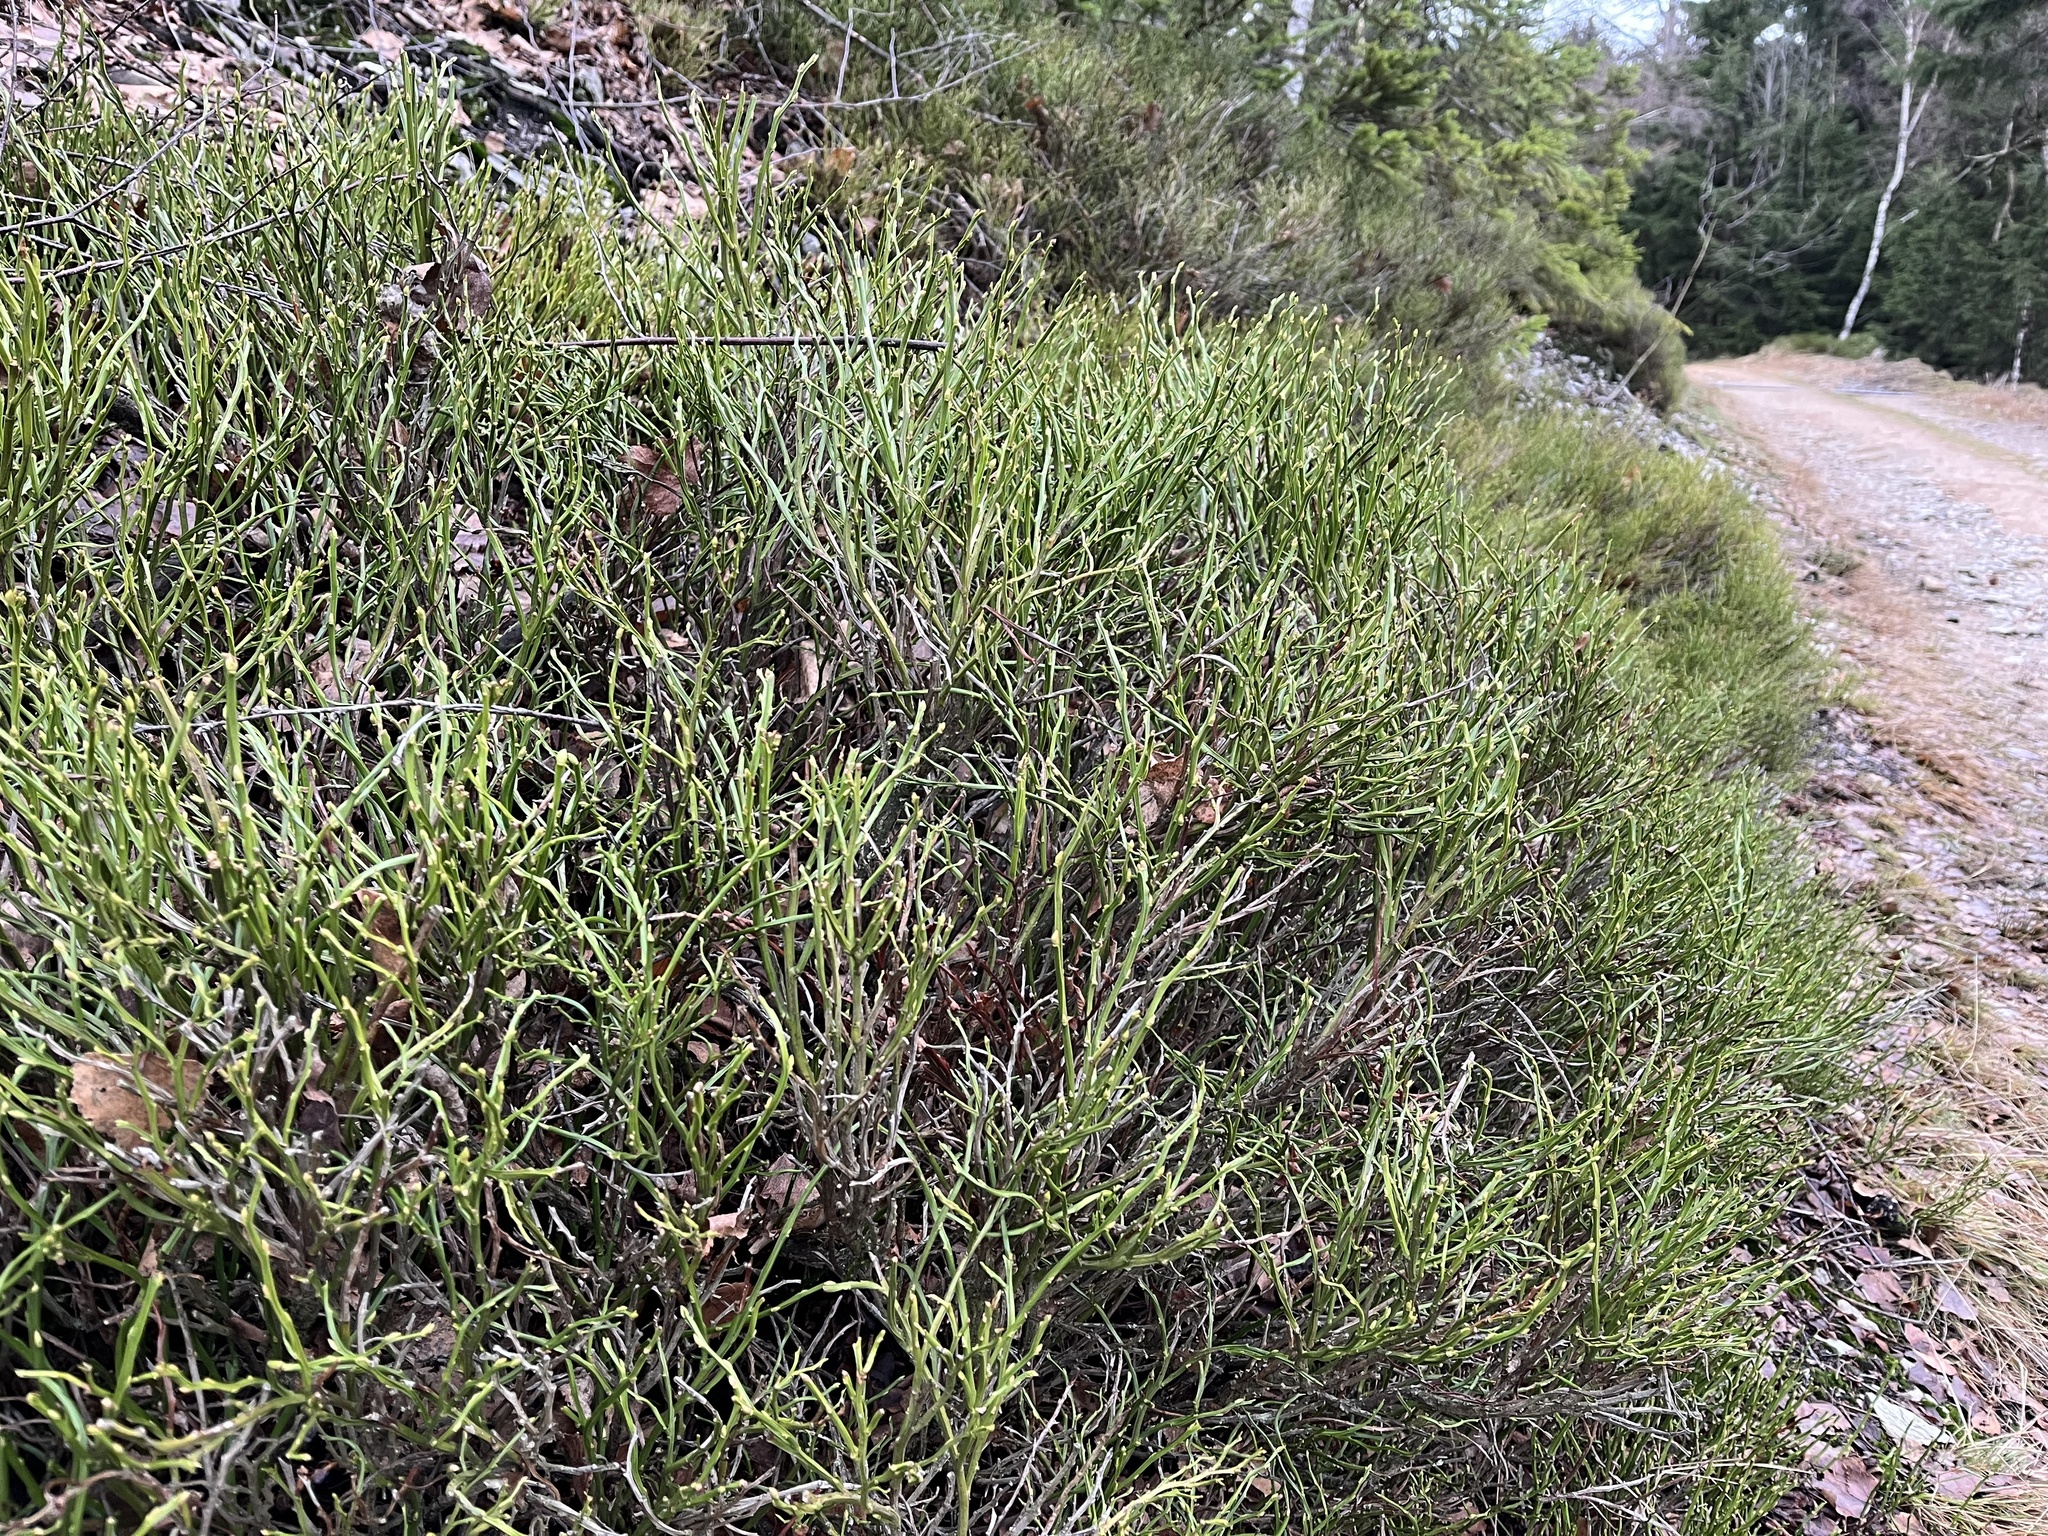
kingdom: Plantae
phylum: Tracheophyta
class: Magnoliopsida
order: Ericales
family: Ericaceae
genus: Vaccinium
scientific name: Vaccinium myrtillus
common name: Bilberry
